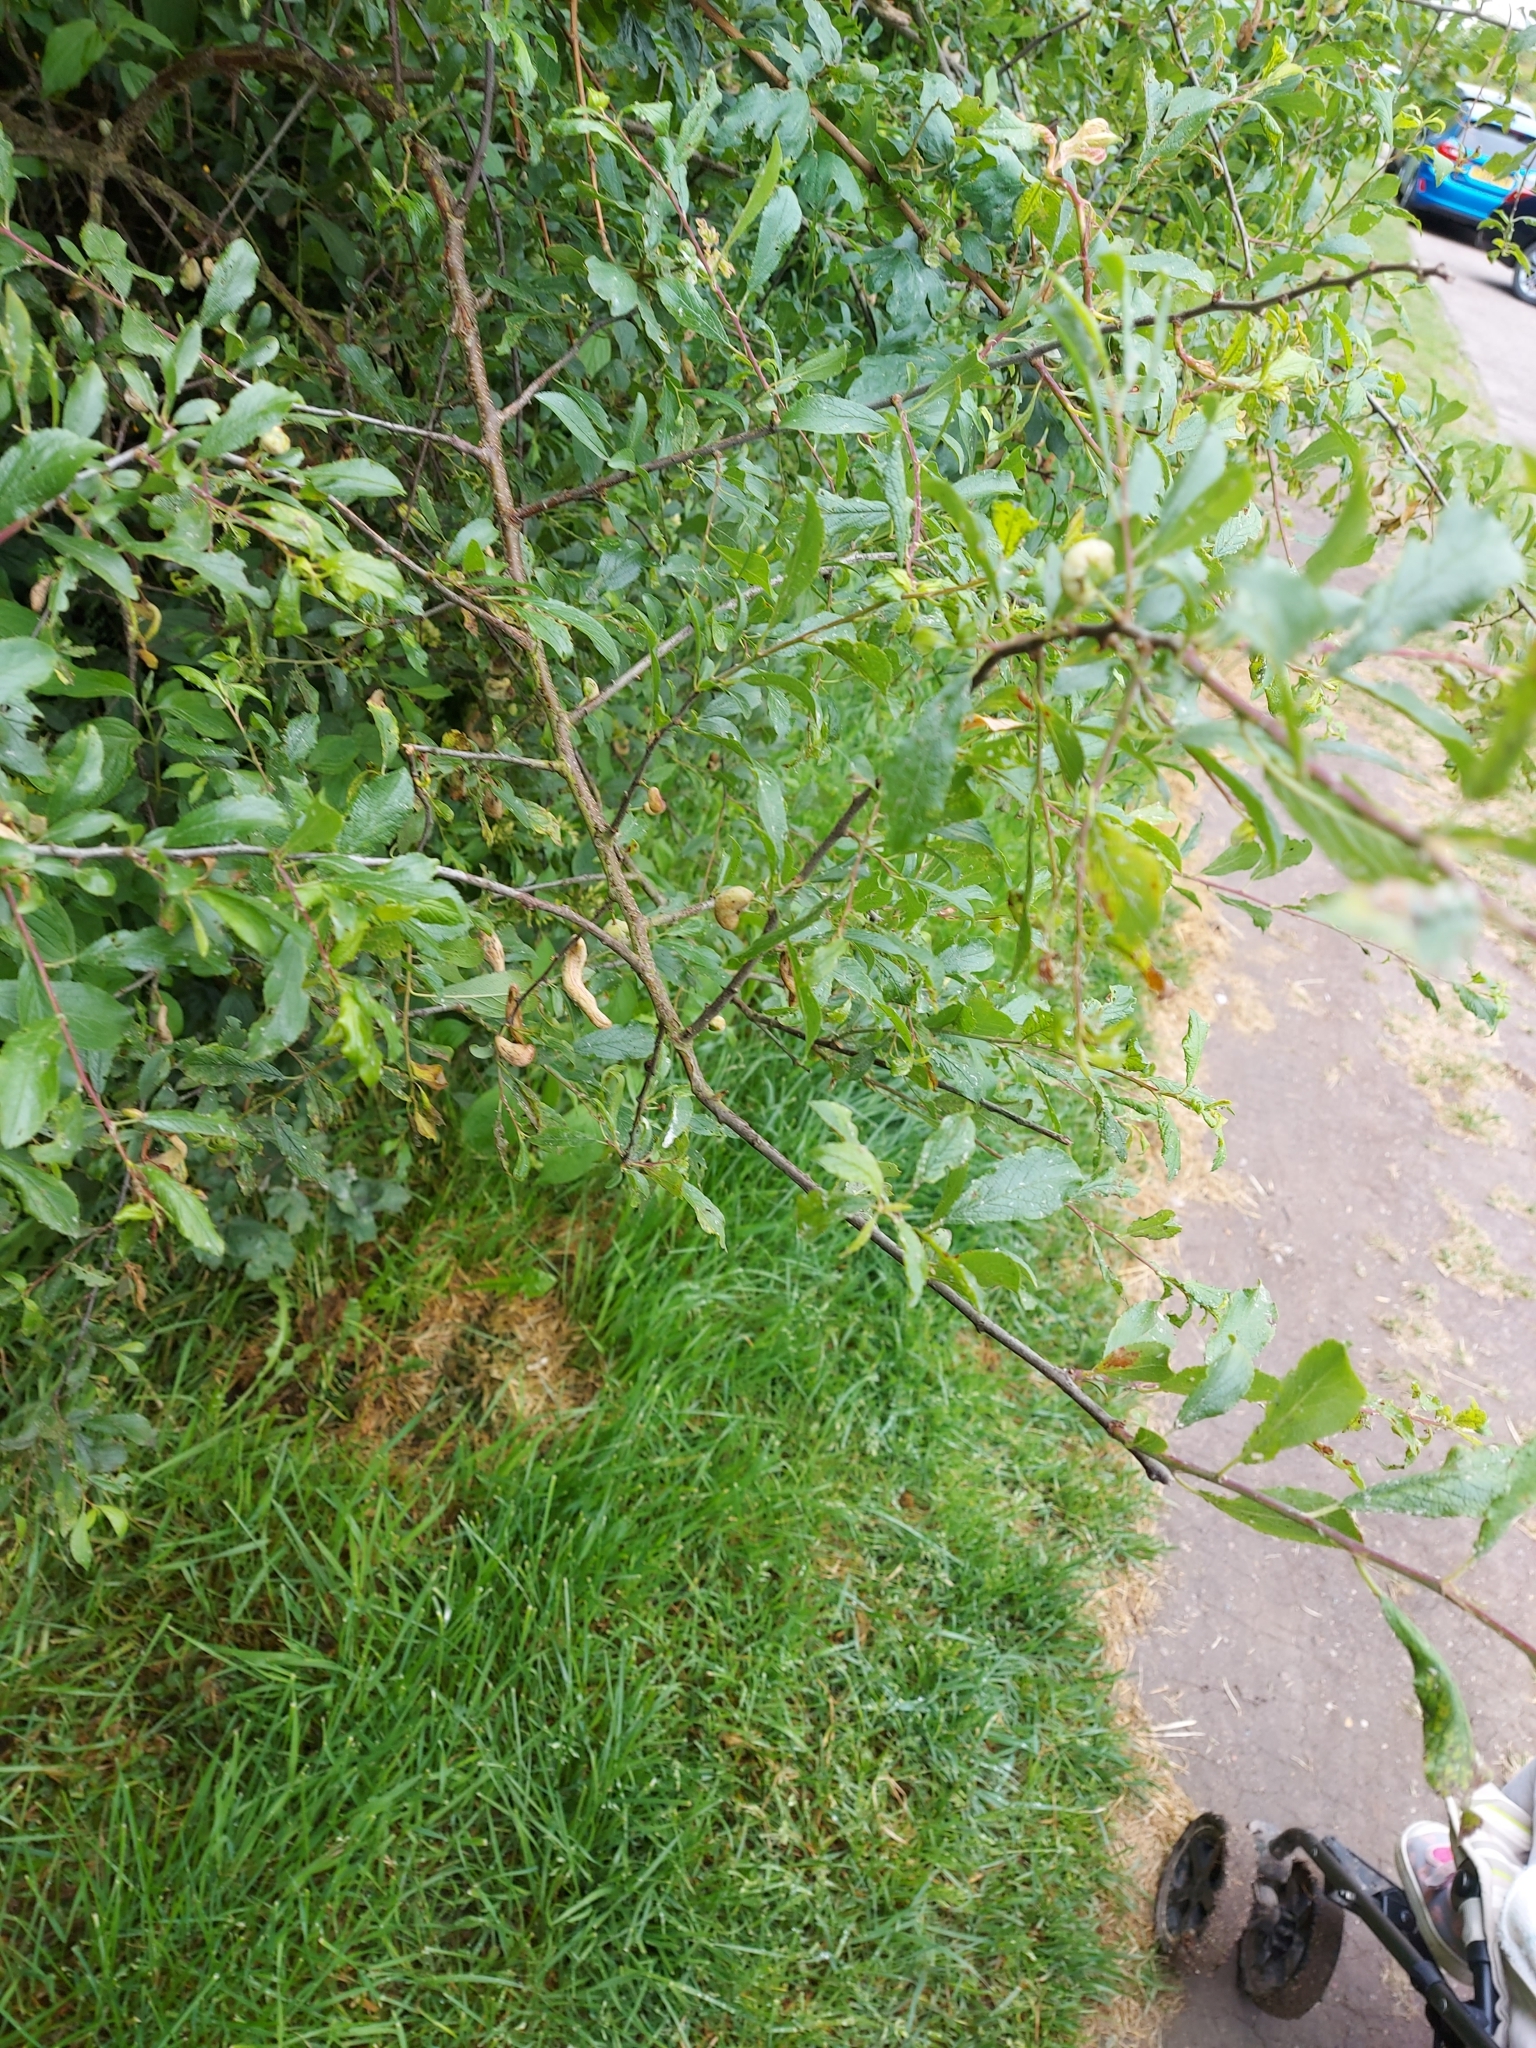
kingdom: Fungi
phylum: Ascomycota
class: Taphrinomycetes
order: Taphrinales
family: Taphrinaceae
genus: Taphrina
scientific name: Taphrina pruni
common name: Pocket plum
